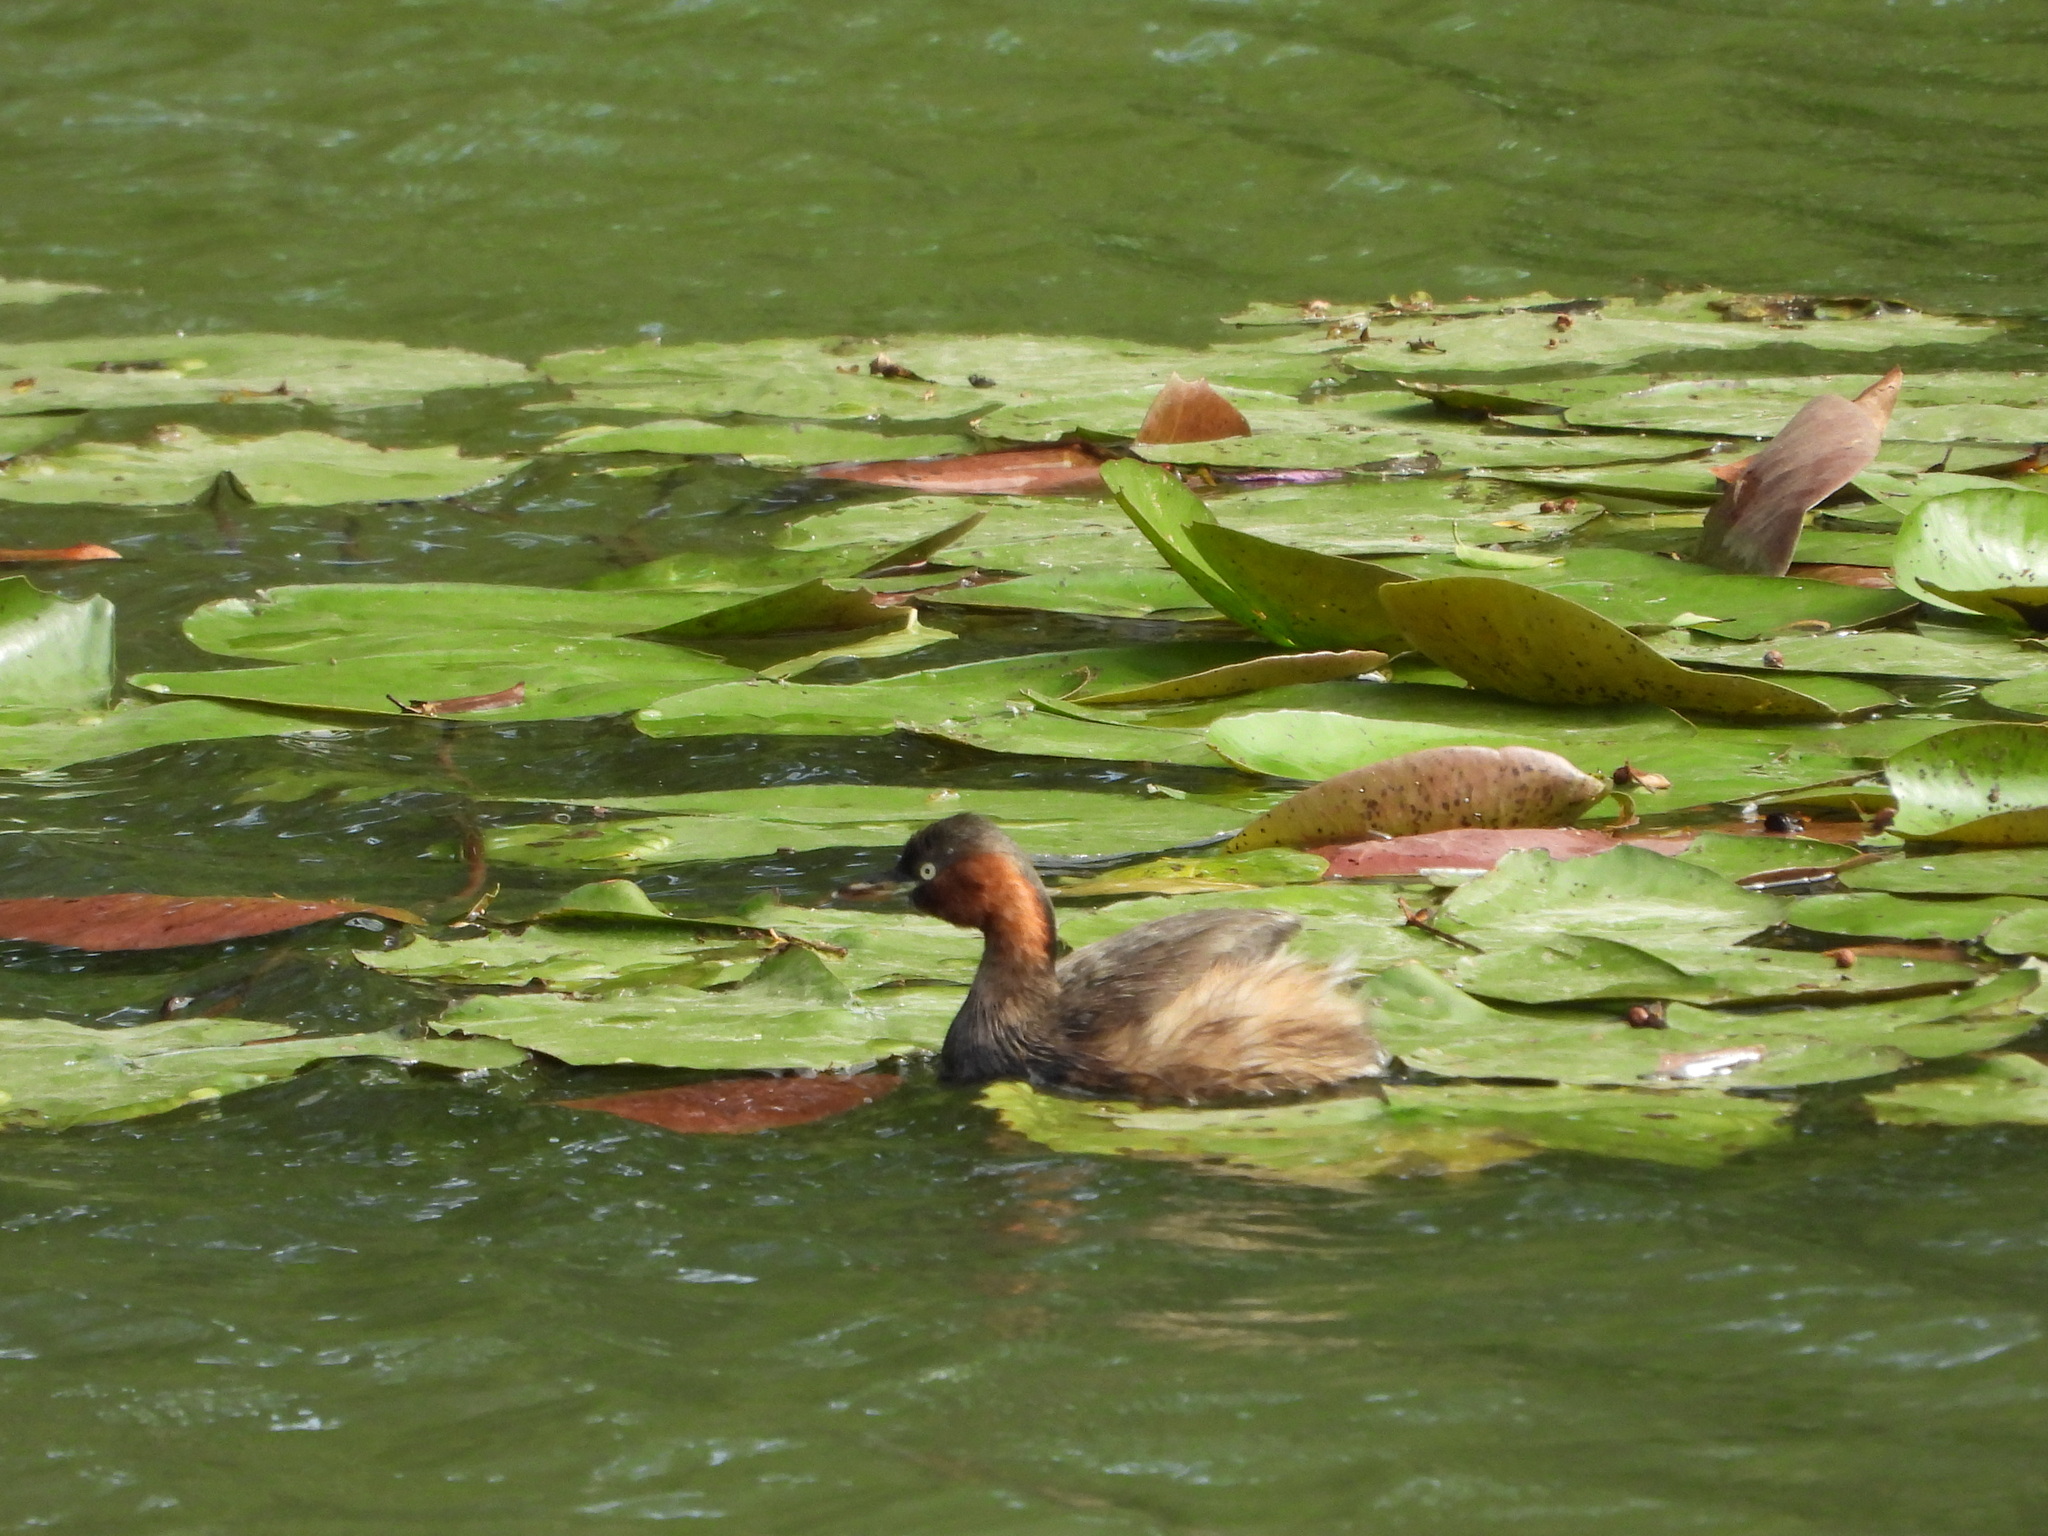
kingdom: Animalia
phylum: Chordata
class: Aves
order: Podicipediformes
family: Podicipedidae
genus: Tachybaptus
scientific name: Tachybaptus ruficollis
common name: Little grebe
